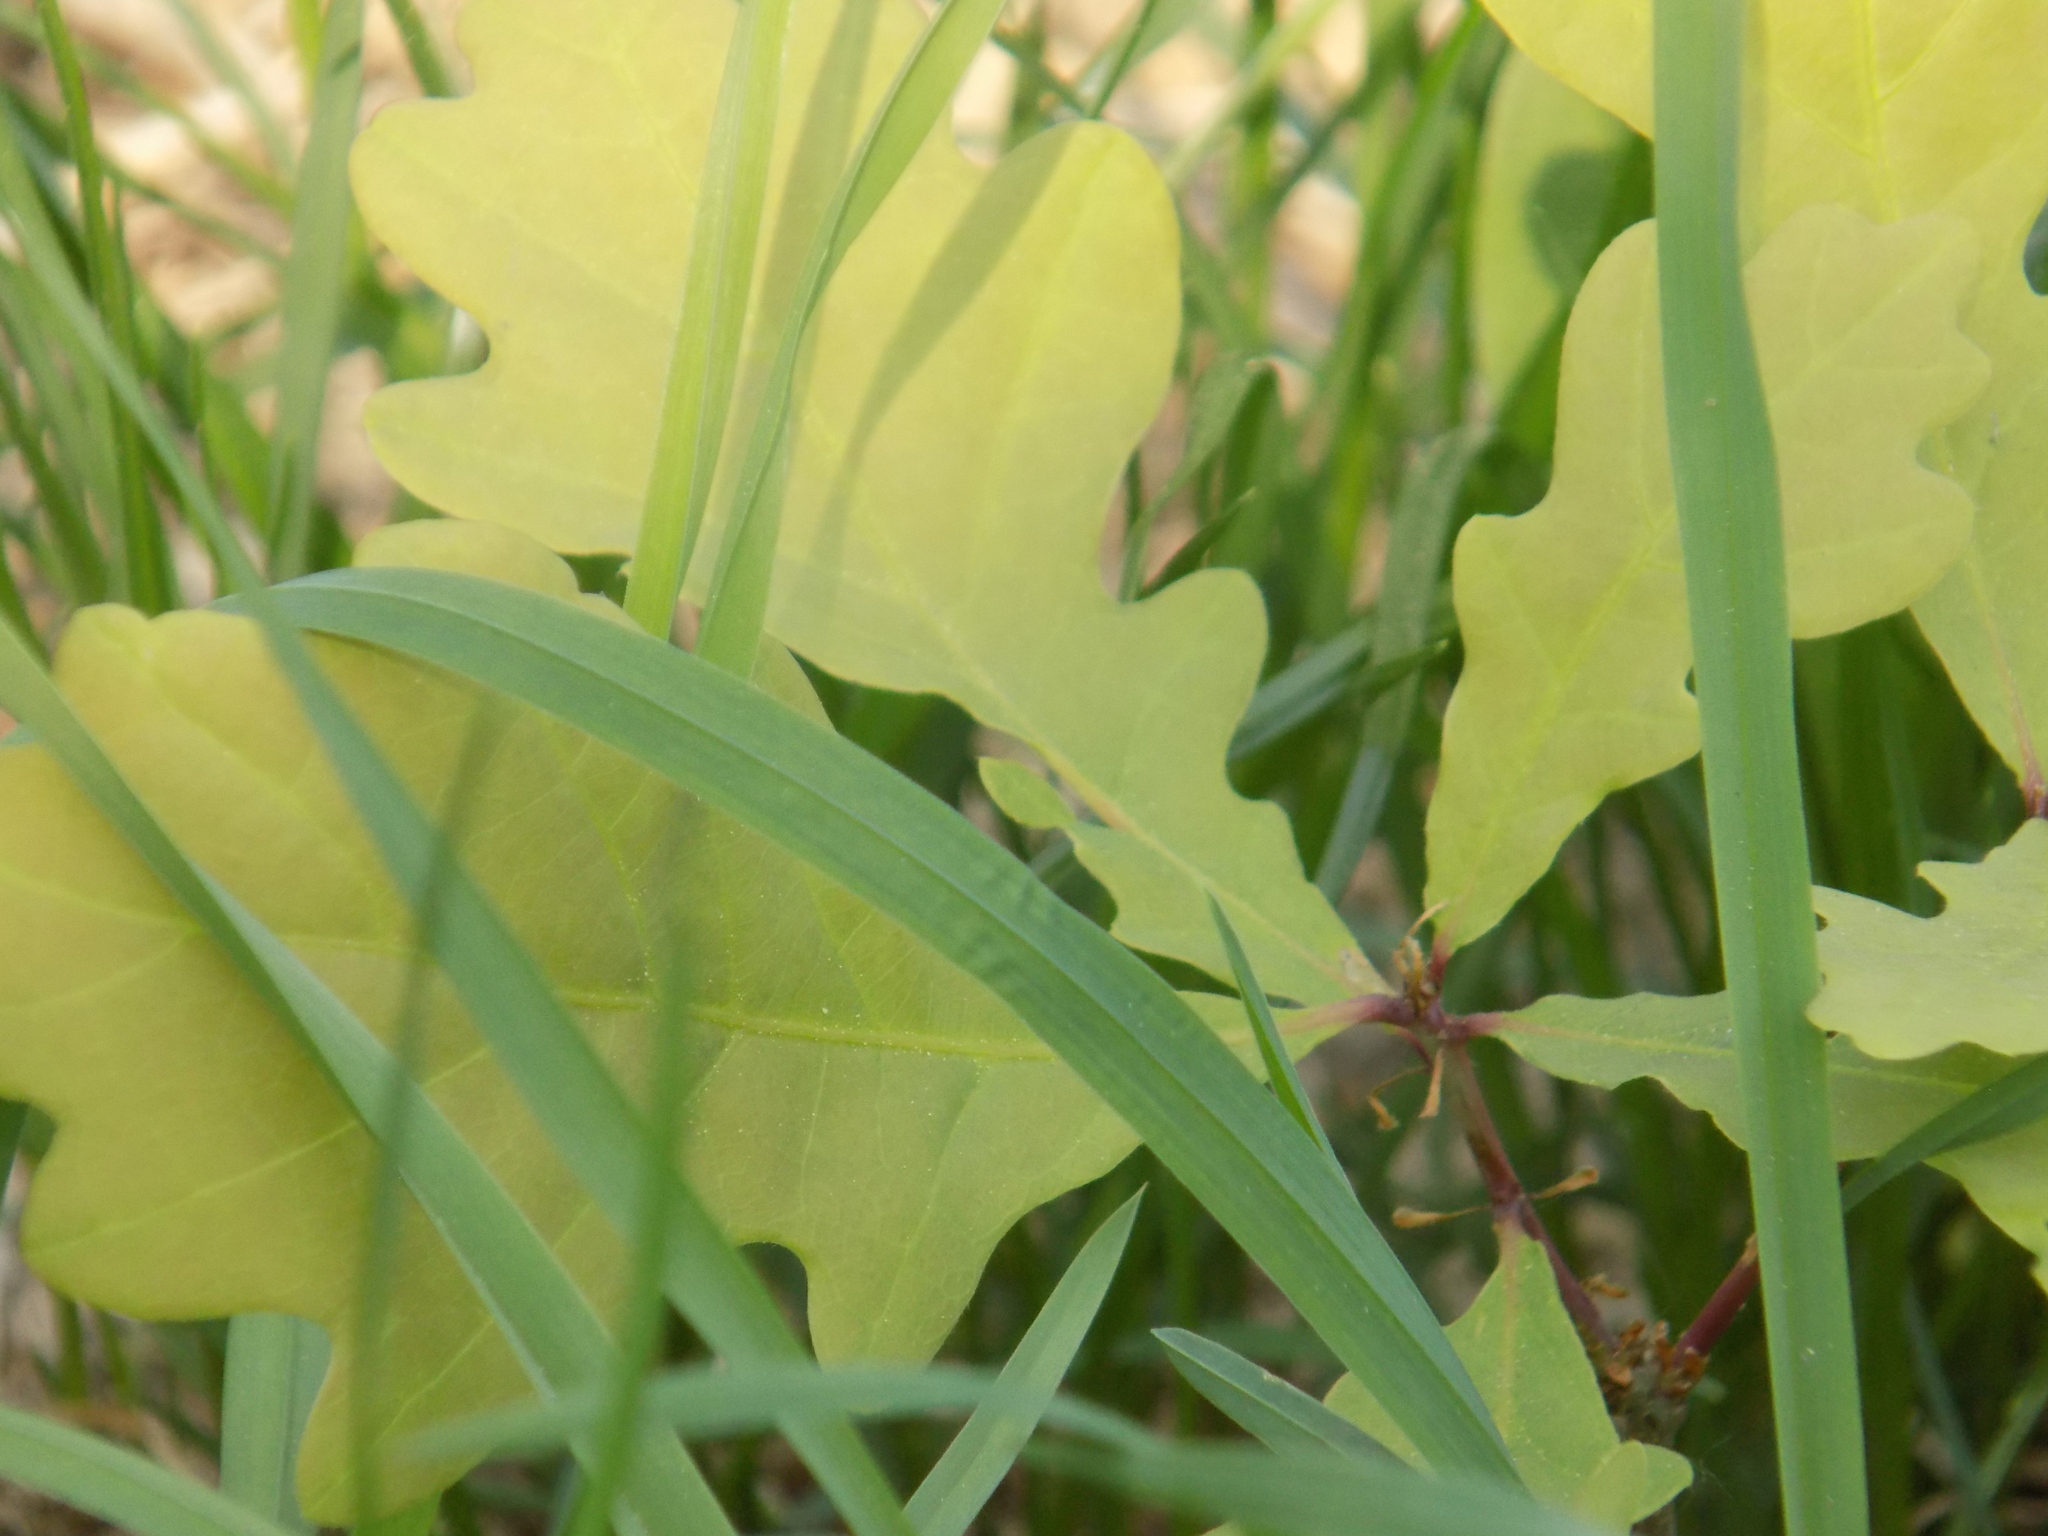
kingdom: Plantae
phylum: Tracheophyta
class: Magnoliopsida
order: Fagales
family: Fagaceae
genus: Quercus
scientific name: Quercus robur
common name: Pedunculate oak
